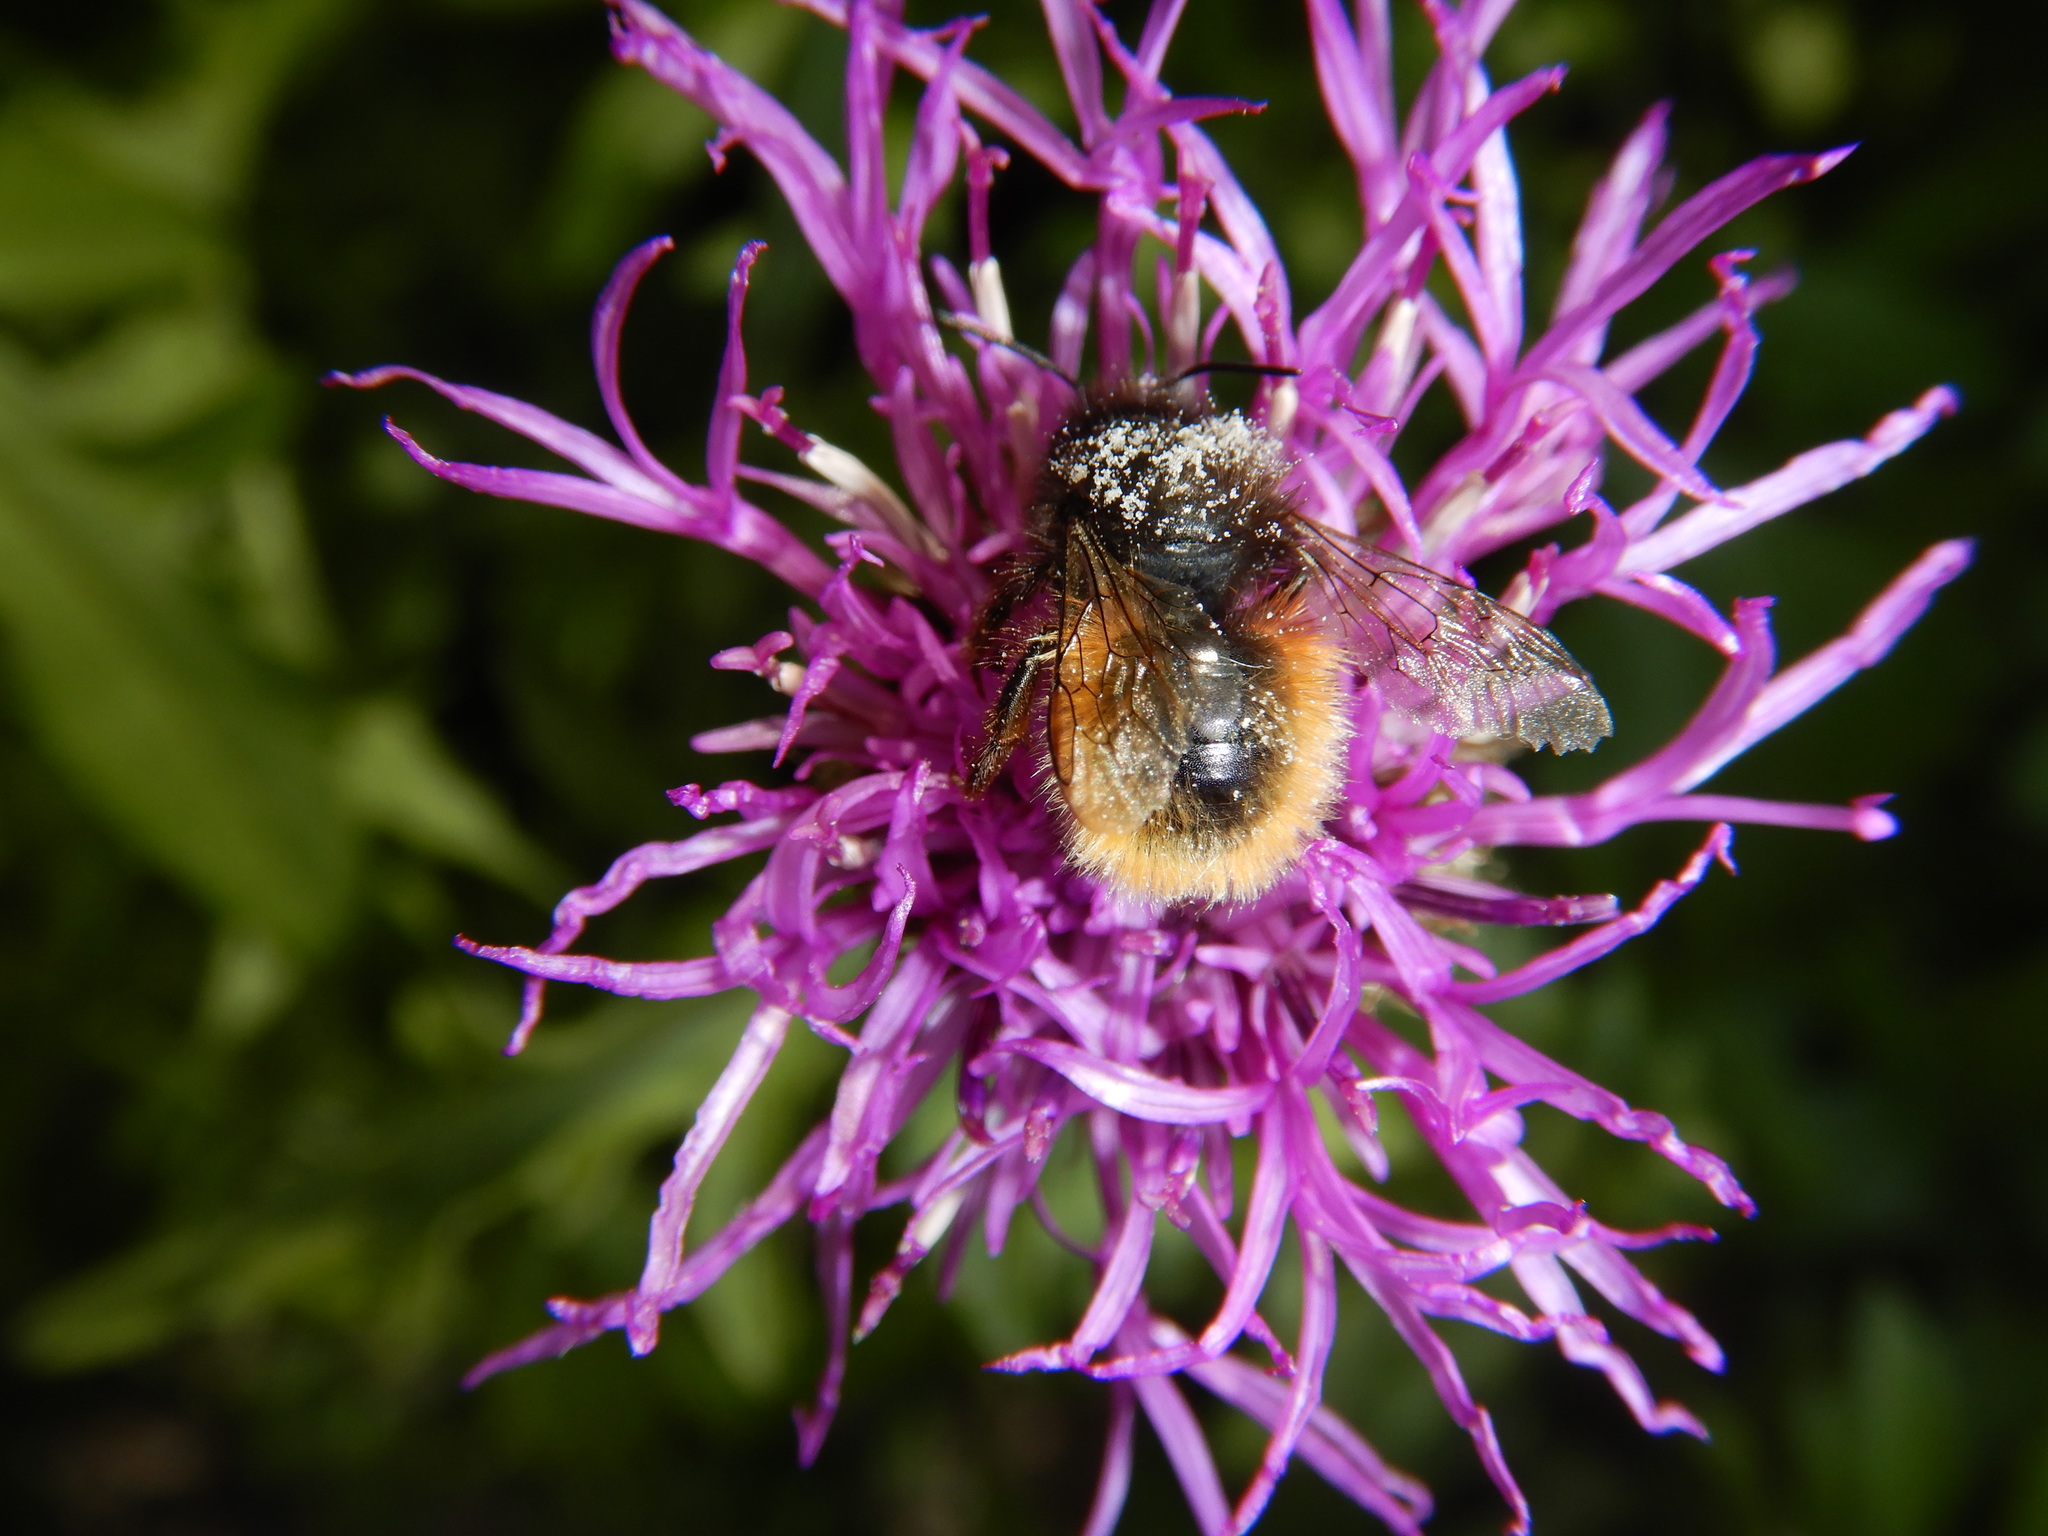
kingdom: Animalia
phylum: Arthropoda
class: Insecta
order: Hymenoptera
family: Megachilidae
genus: Osmia
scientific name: Osmia cornuta
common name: Mason bee
